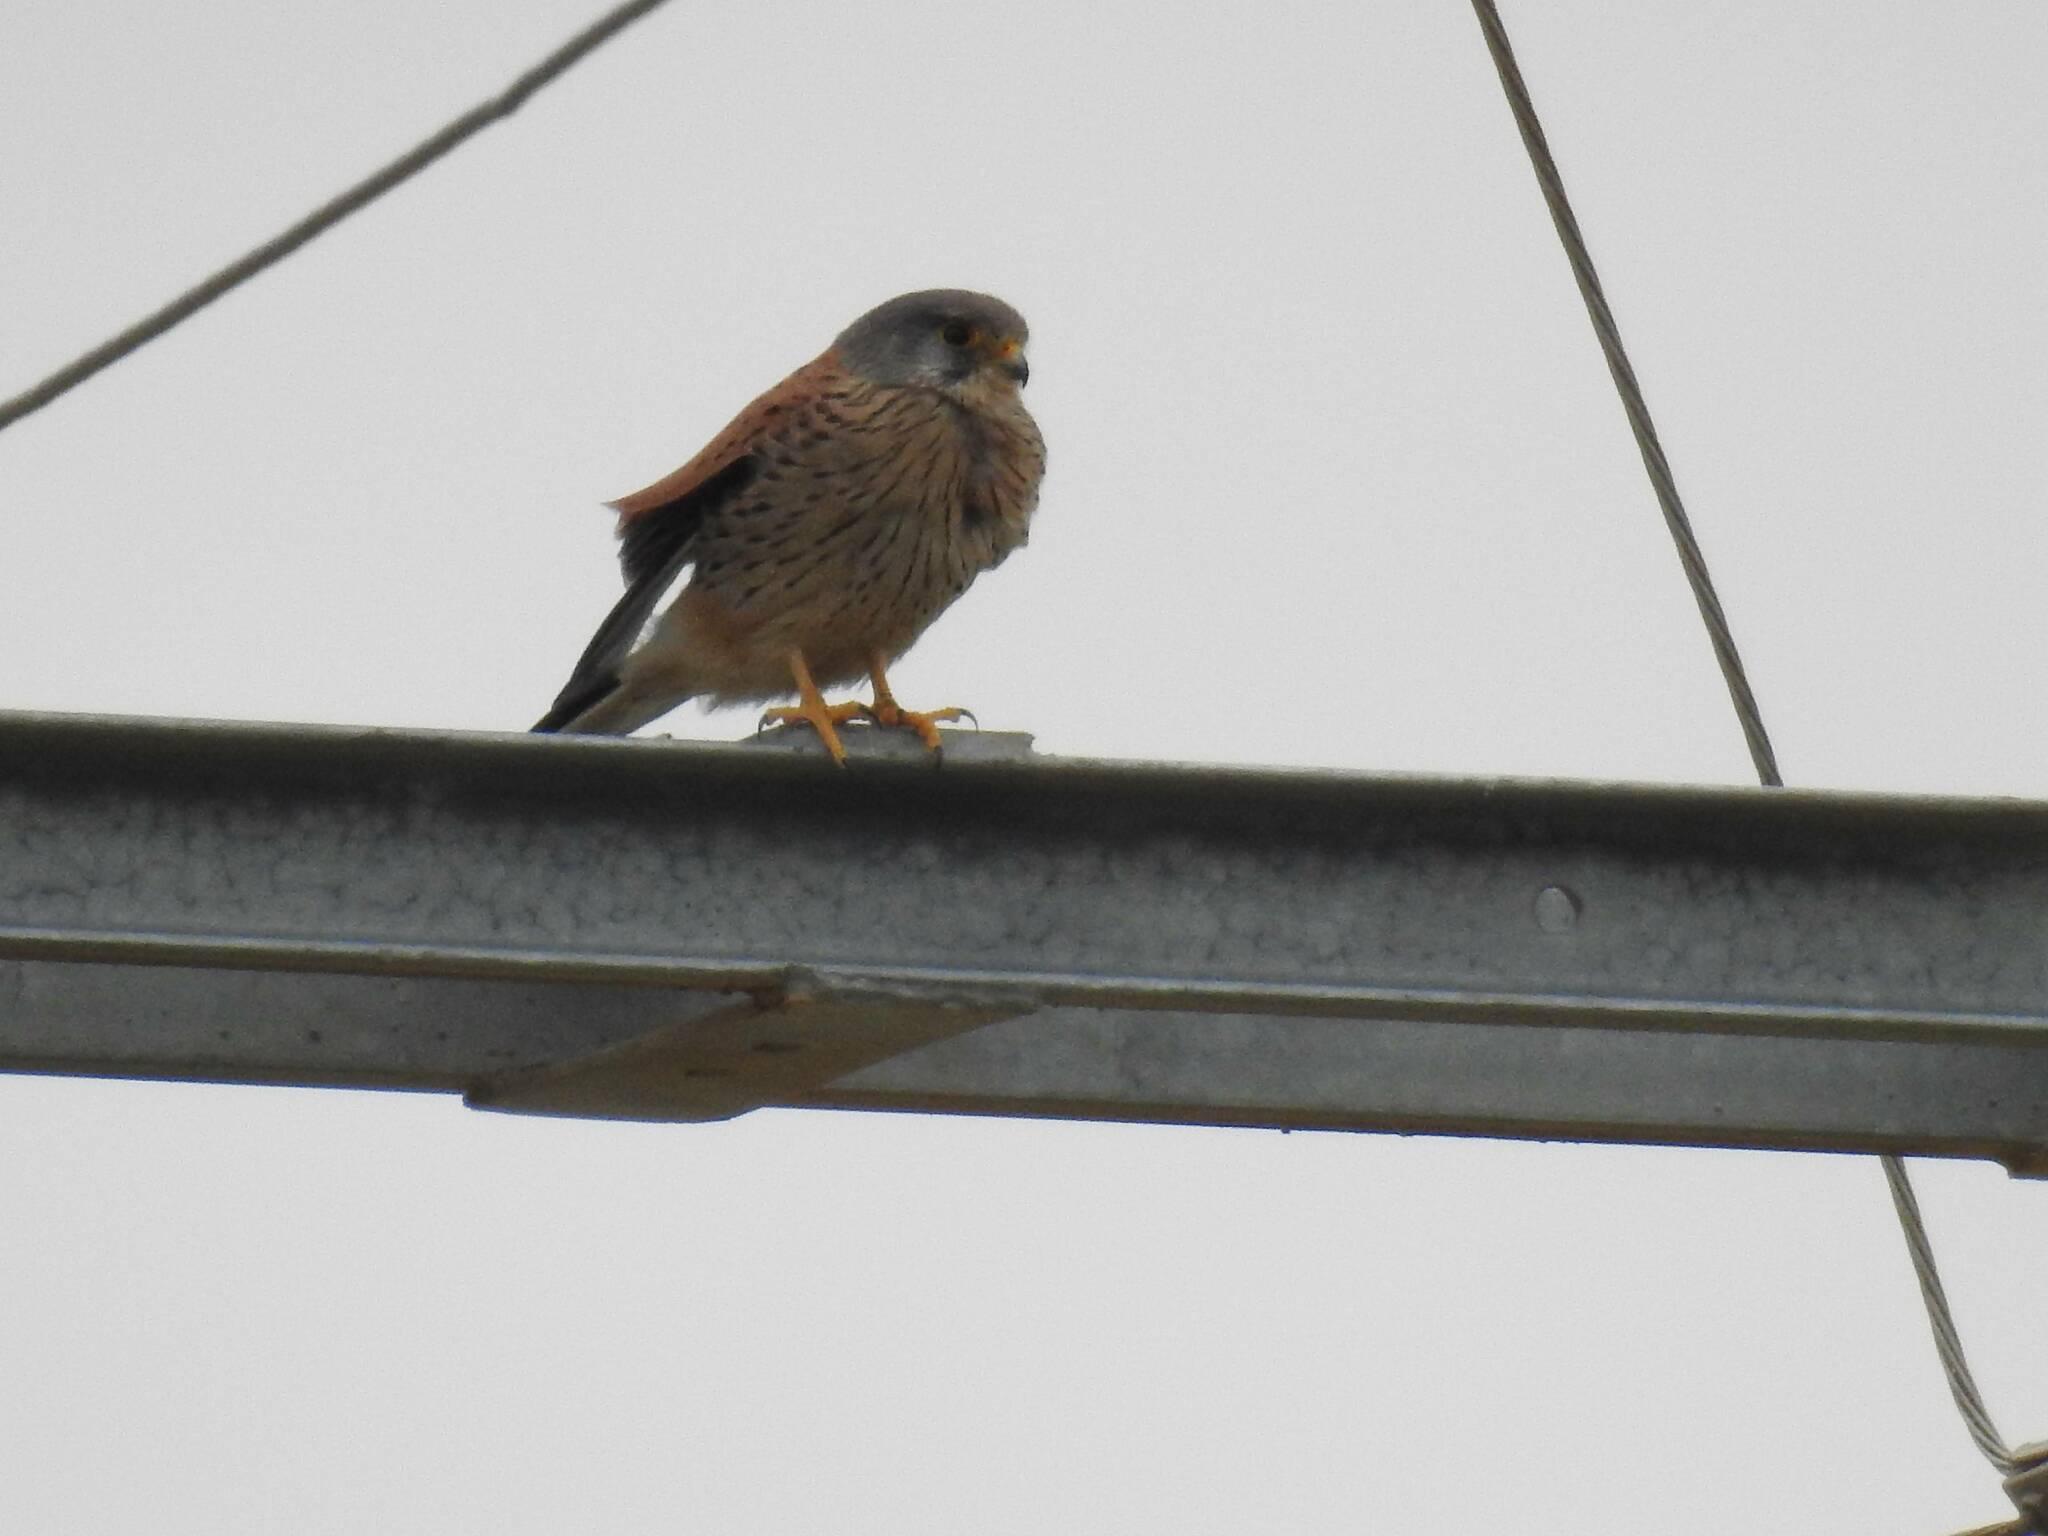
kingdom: Animalia
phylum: Chordata
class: Aves
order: Falconiformes
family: Falconidae
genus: Falco
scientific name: Falco tinnunculus
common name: Common kestrel
